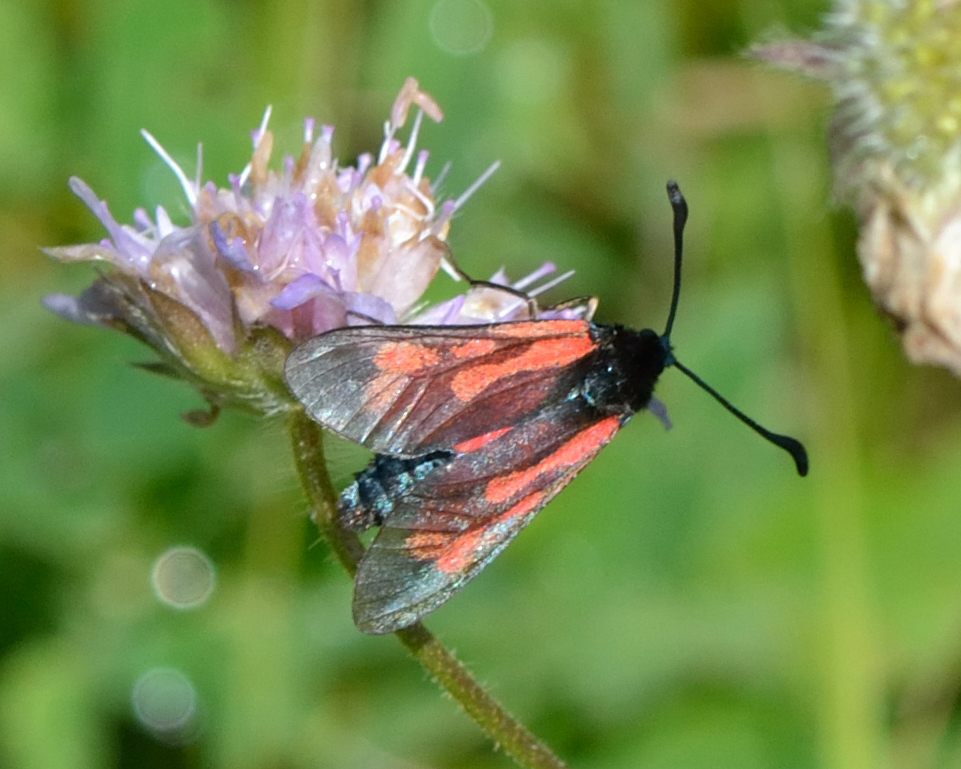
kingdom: Animalia
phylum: Arthropoda
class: Insecta
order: Lepidoptera
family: Zygaenidae
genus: Zygaena
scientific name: Zygaena minos
